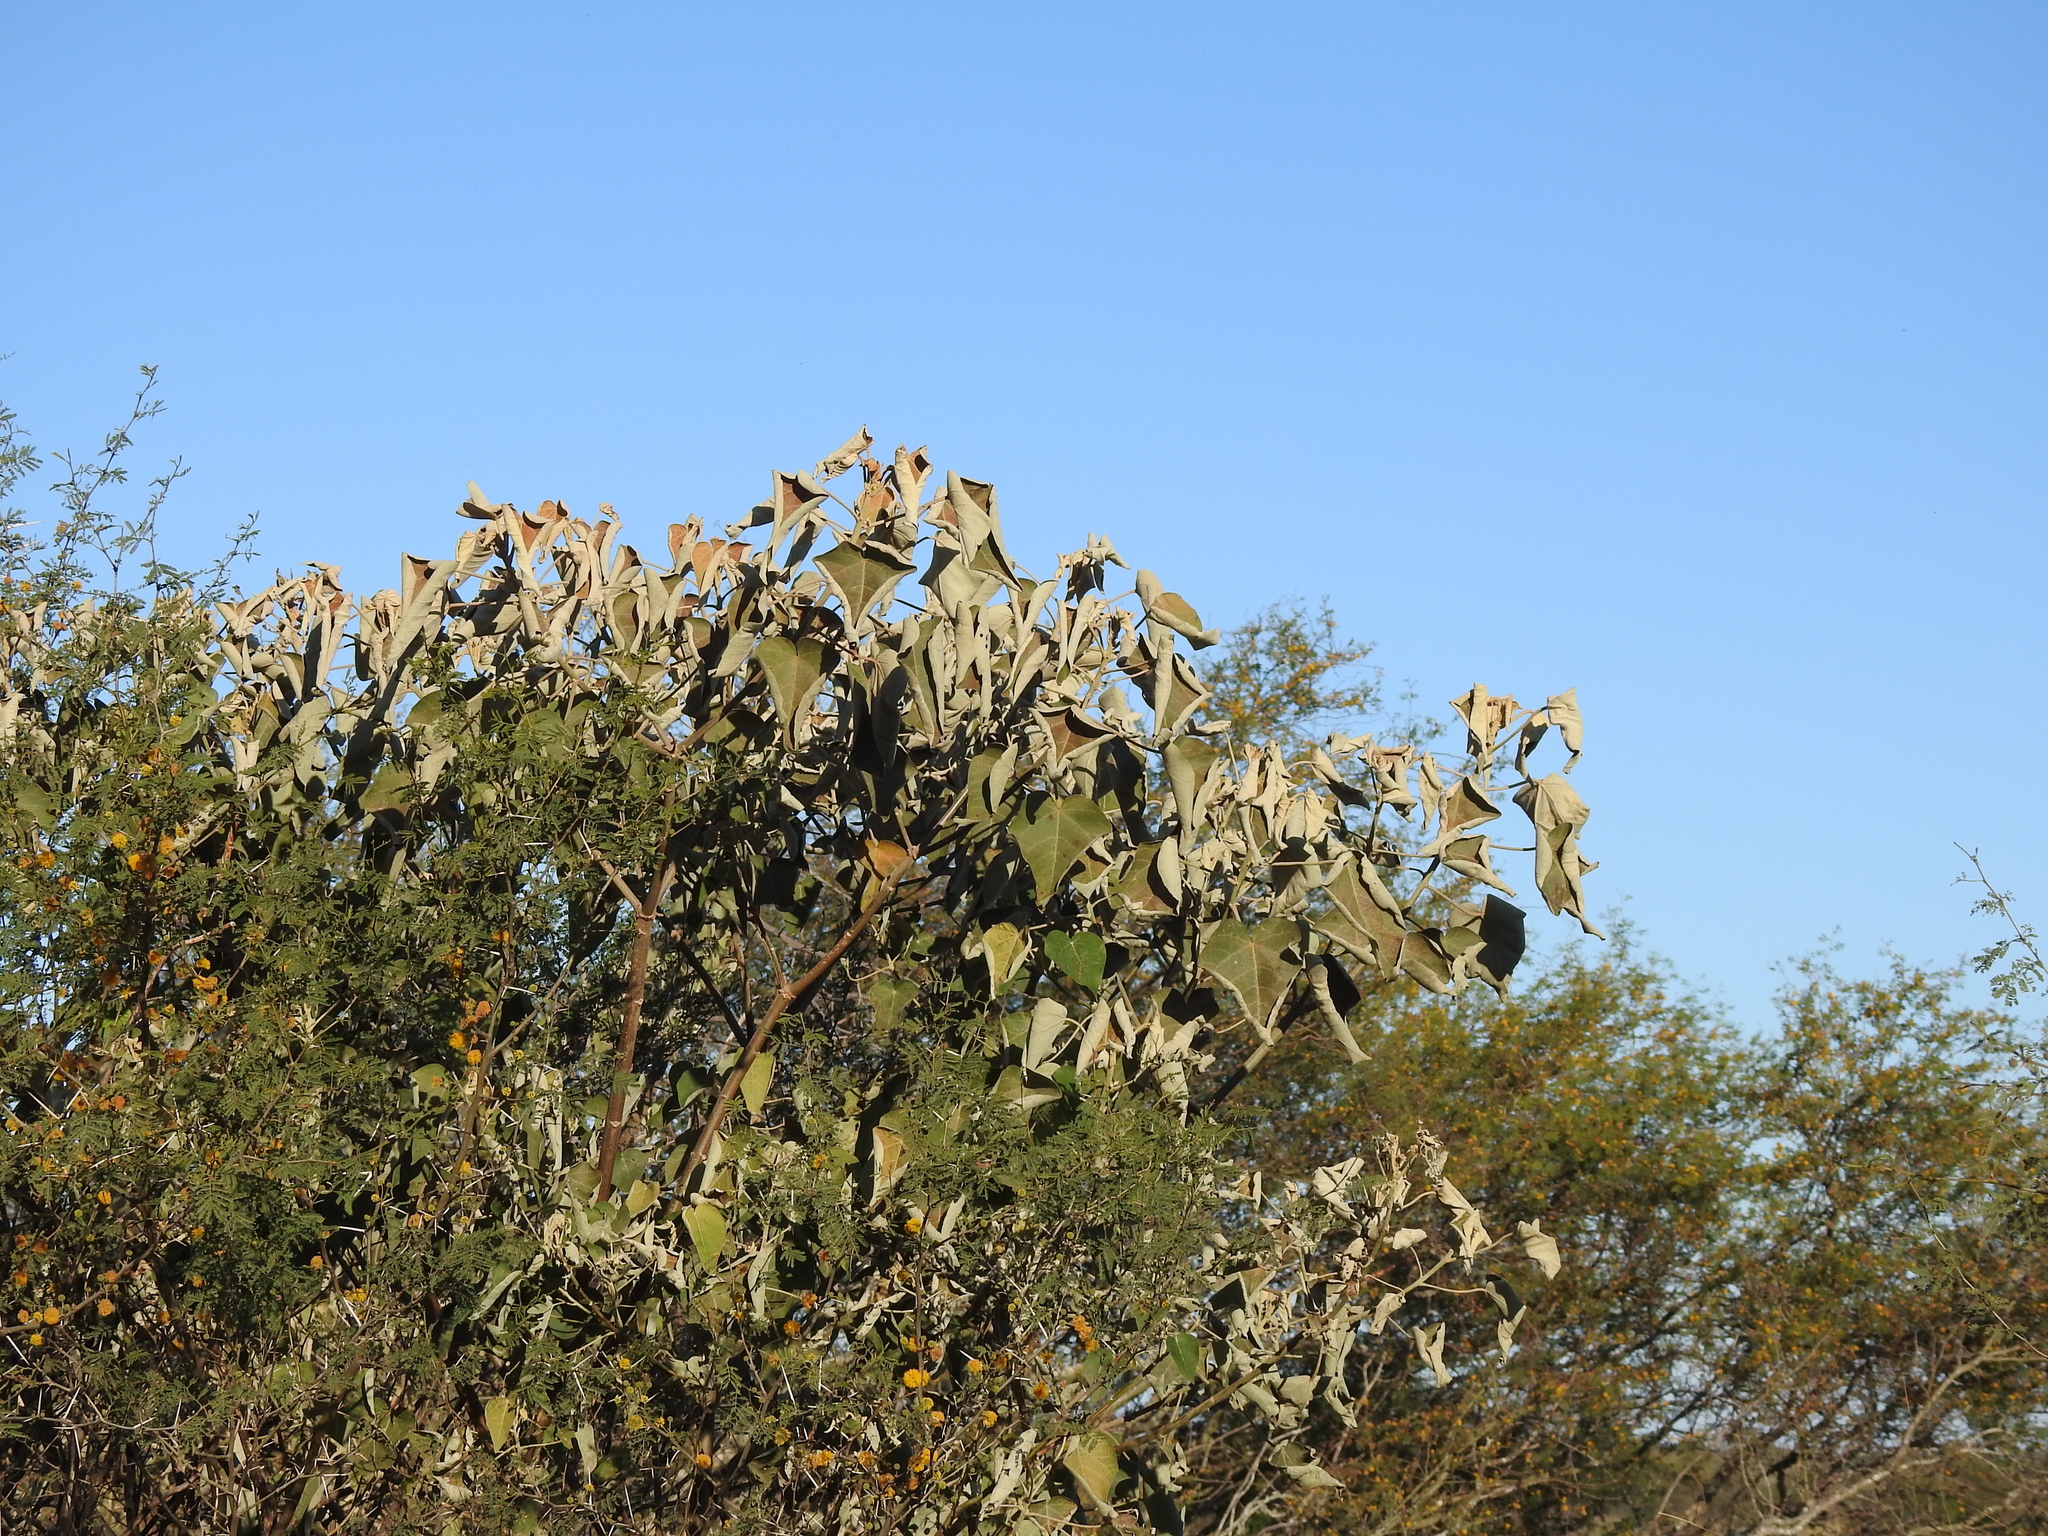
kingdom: Plantae
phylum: Tracheophyta
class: Magnoliopsida
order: Malpighiales
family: Euphorbiaceae
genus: Croton
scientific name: Croton urucurana
